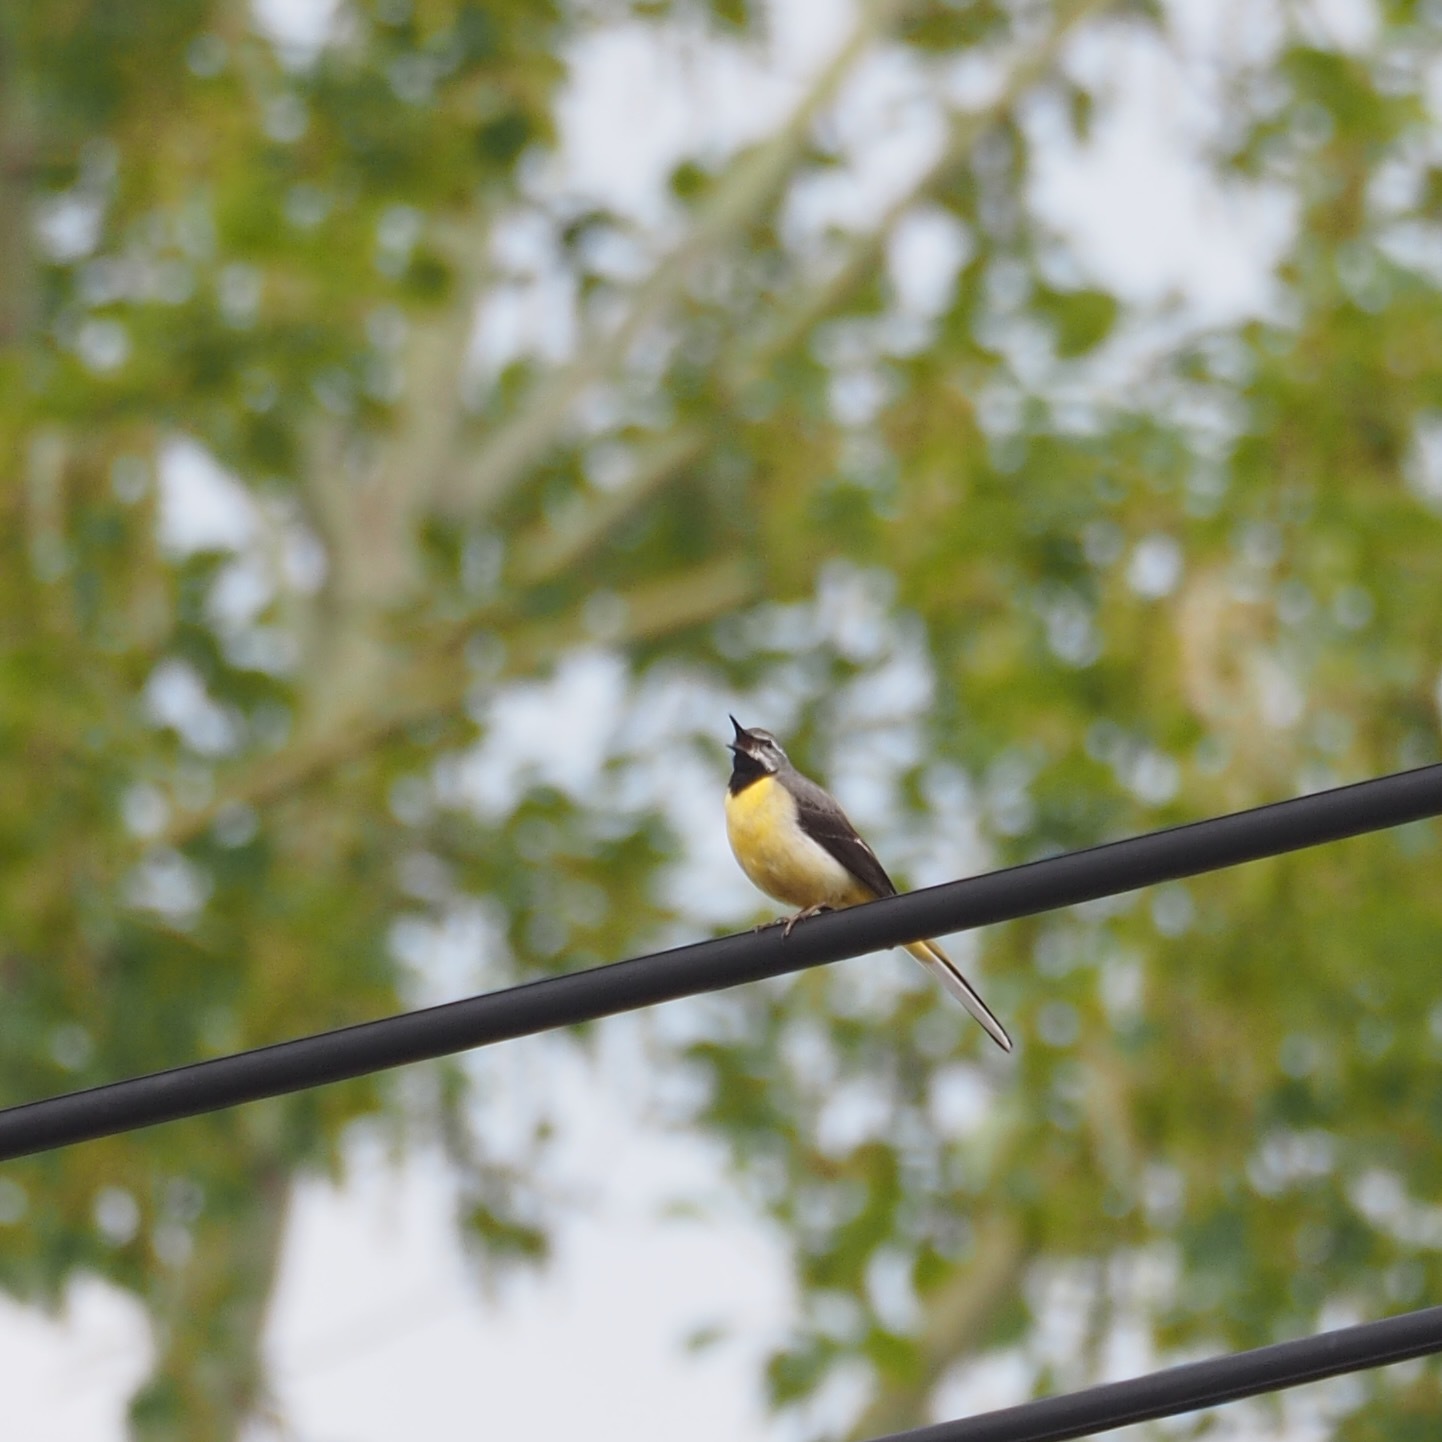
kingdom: Animalia
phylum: Chordata
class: Aves
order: Passeriformes
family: Motacillidae
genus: Motacilla
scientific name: Motacilla cinerea
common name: Grey wagtail
